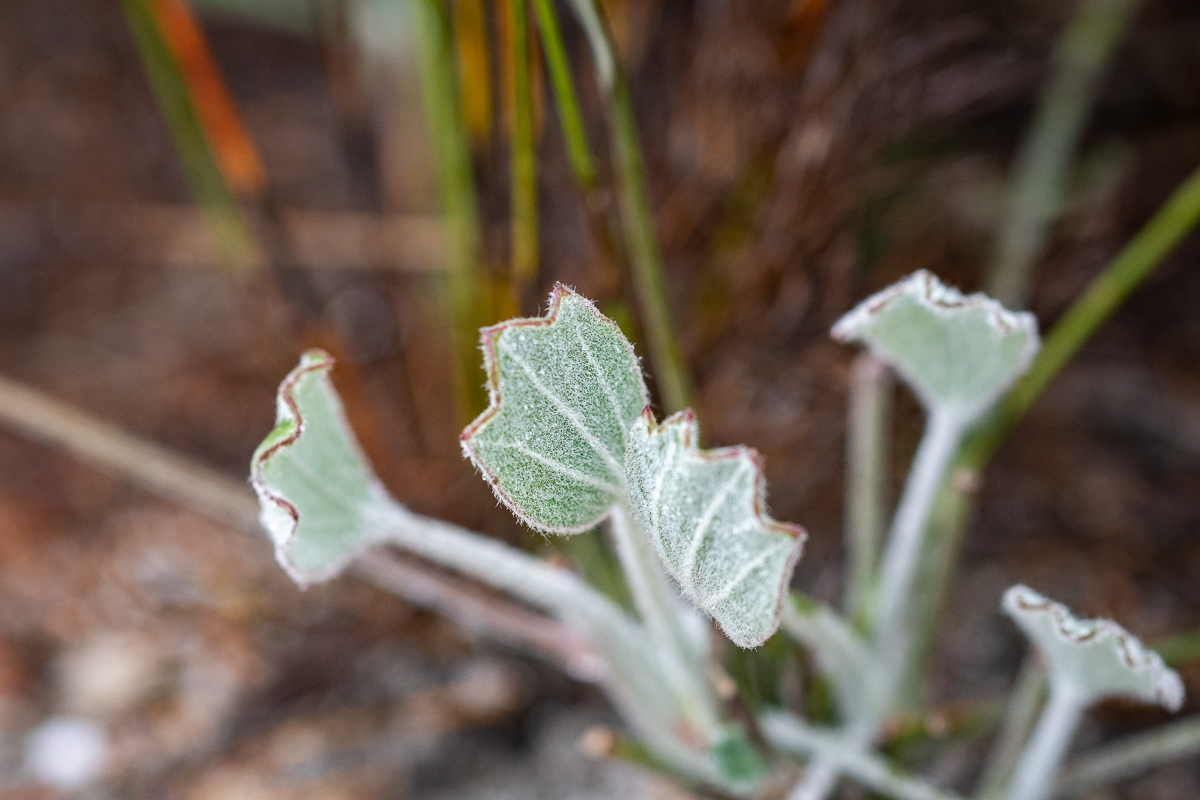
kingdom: Plantae
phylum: Tracheophyta
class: Magnoliopsida
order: Apiales
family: Apiaceae
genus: Centella
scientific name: Centella difformis
